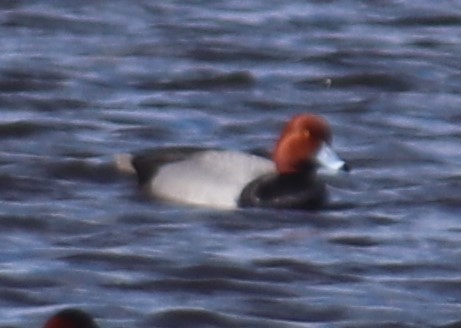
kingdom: Animalia
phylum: Chordata
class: Aves
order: Anseriformes
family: Anatidae
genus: Aythya
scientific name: Aythya americana
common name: Redhead
